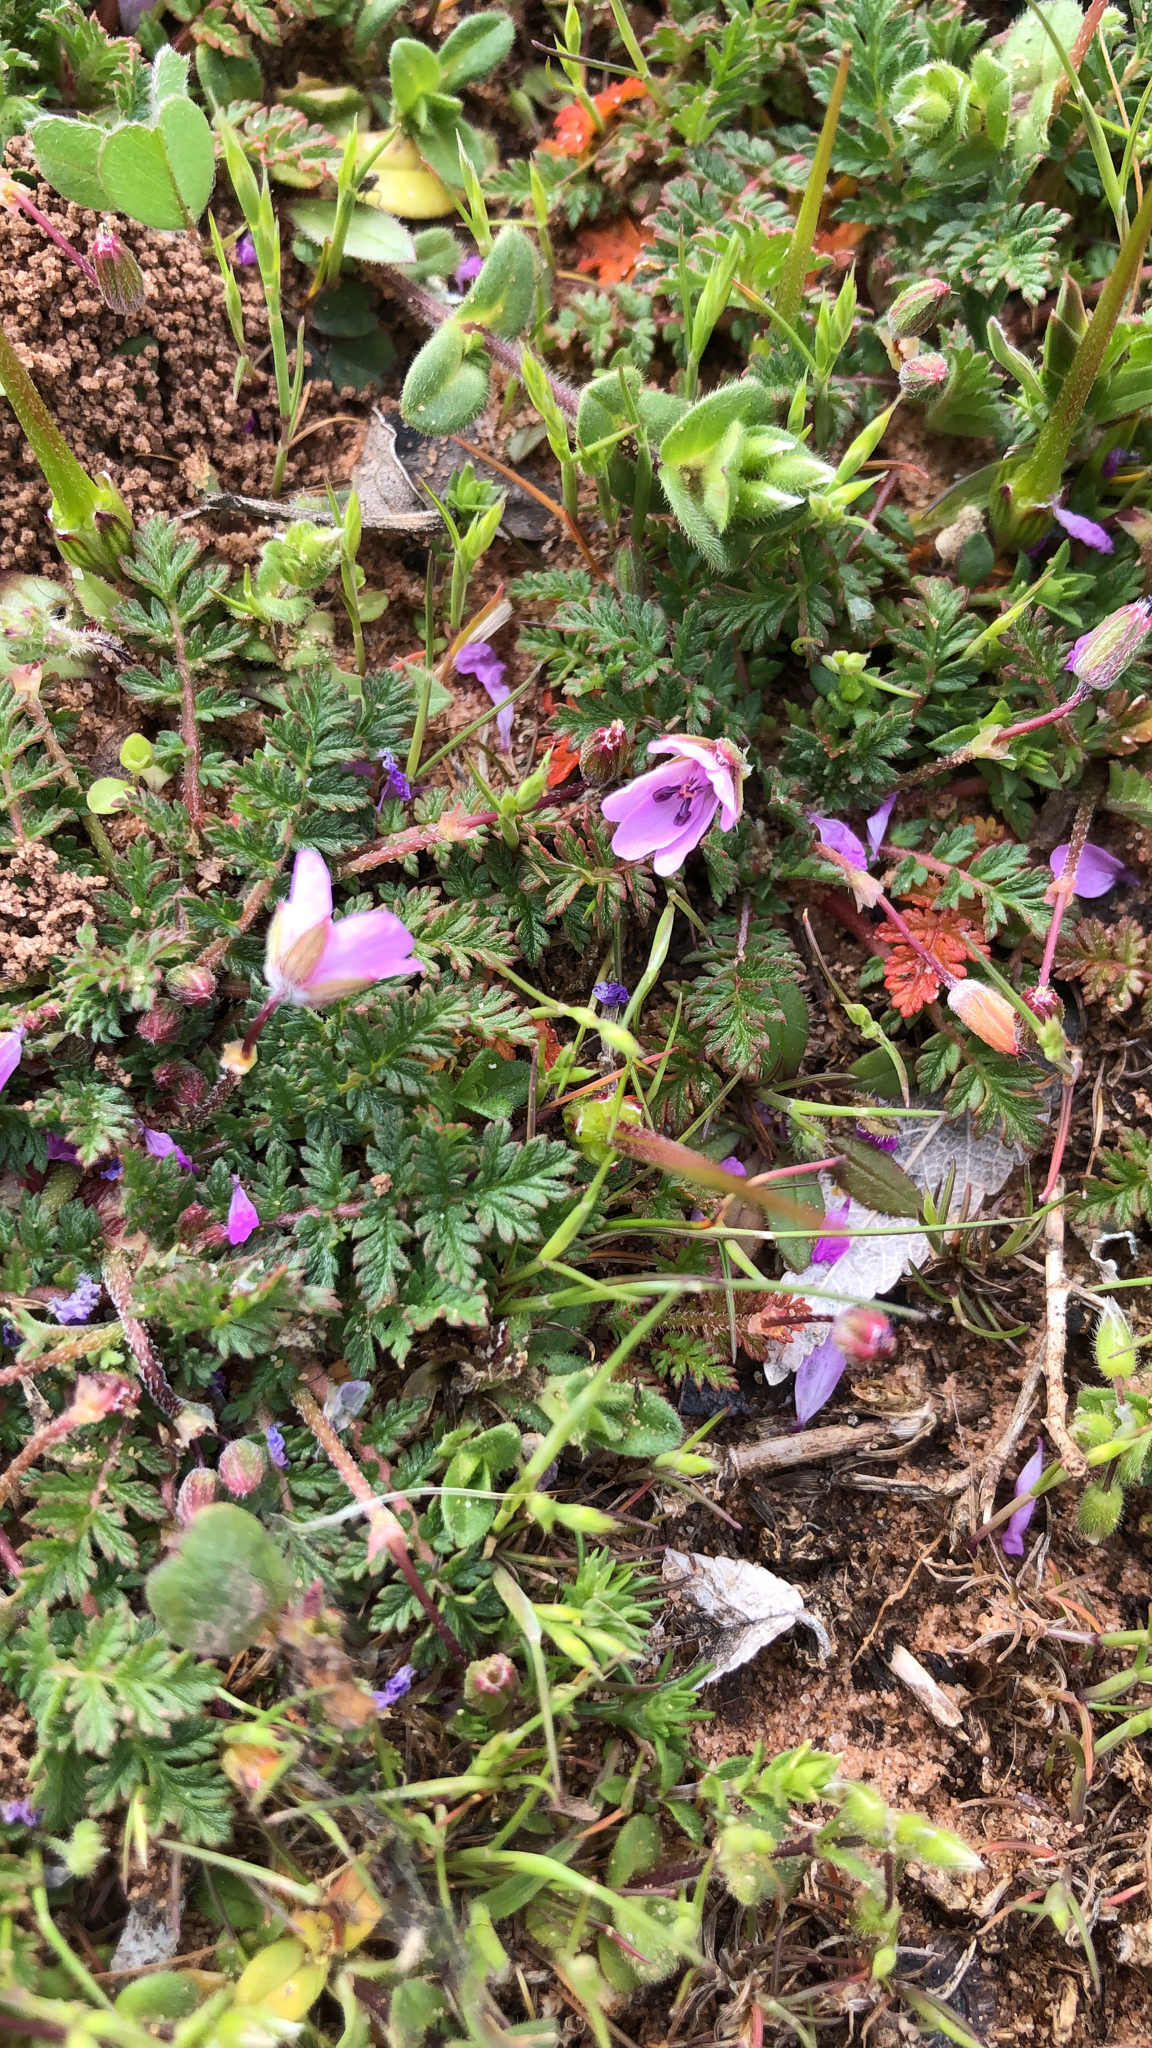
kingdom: Plantae
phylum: Tracheophyta
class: Magnoliopsida
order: Geraniales
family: Geraniaceae
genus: Erodium
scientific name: Erodium cicutarium
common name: Common stork's-bill
